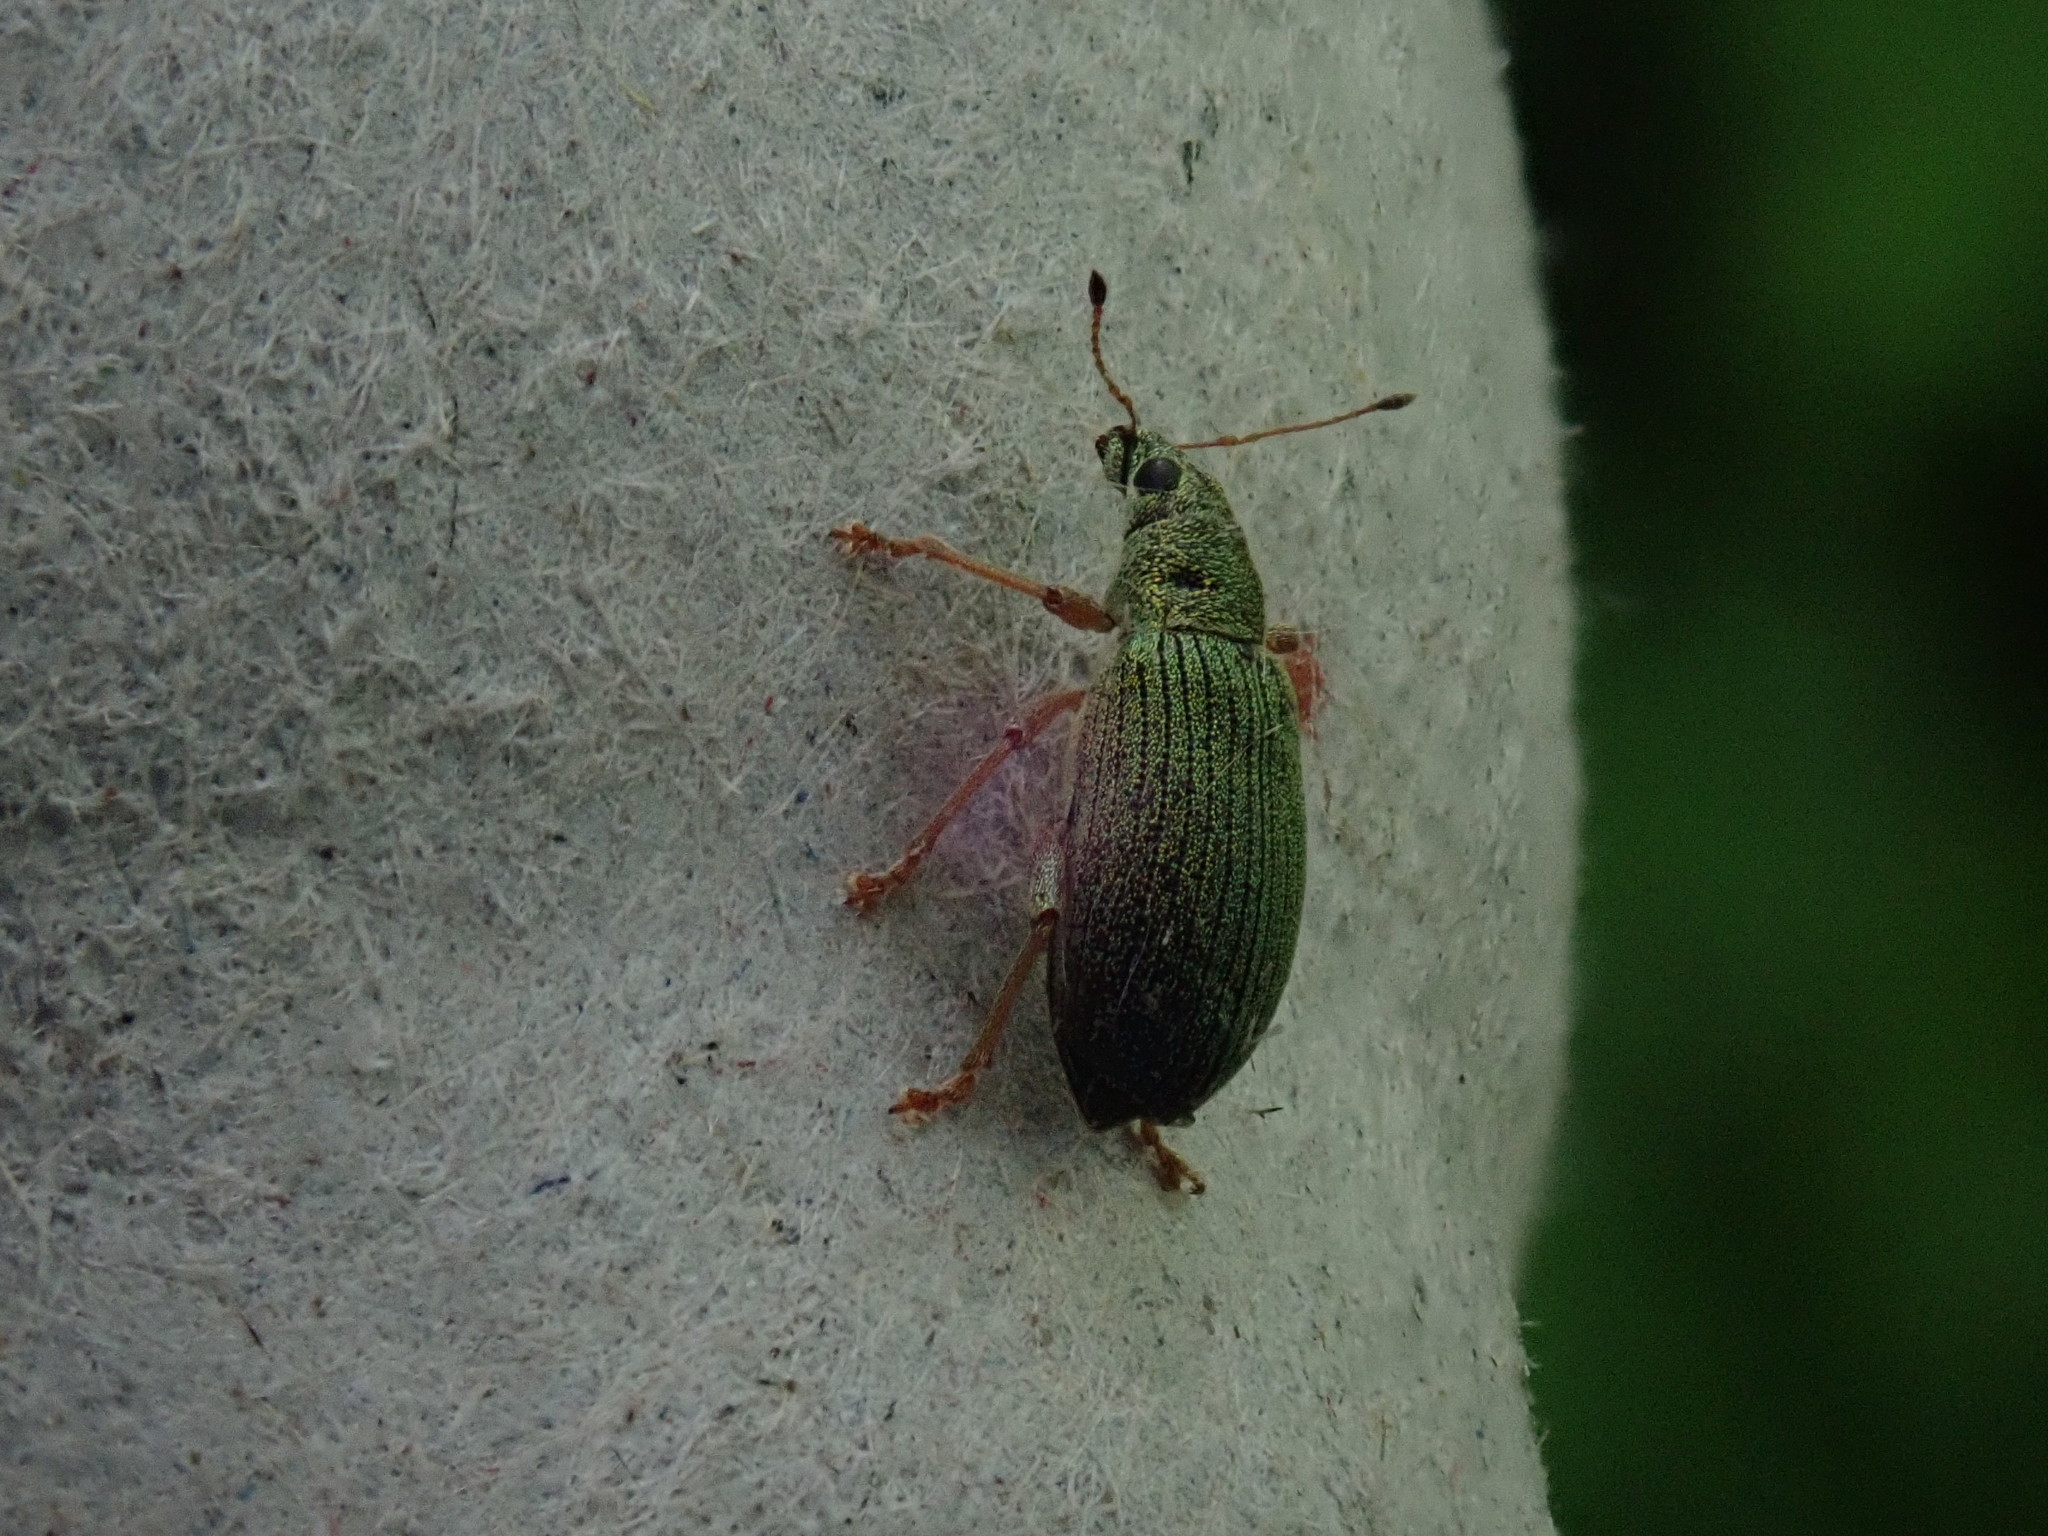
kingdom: Animalia
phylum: Arthropoda
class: Insecta
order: Coleoptera
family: Curculionidae
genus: Polydrusus
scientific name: Polydrusus formosus
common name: Weevil
